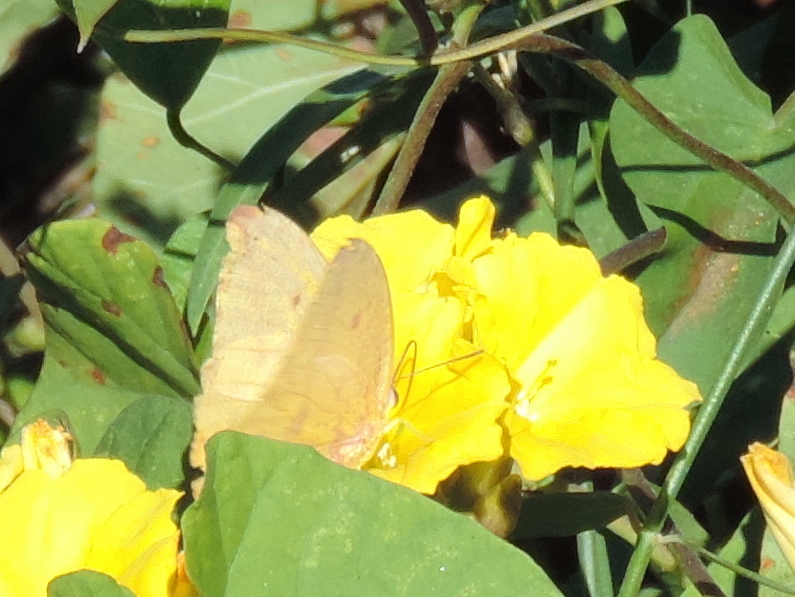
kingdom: Animalia
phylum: Arthropoda
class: Insecta
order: Lepidoptera
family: Pieridae
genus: Phoebis
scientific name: Phoebis sennae
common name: Cloudless sulphur
